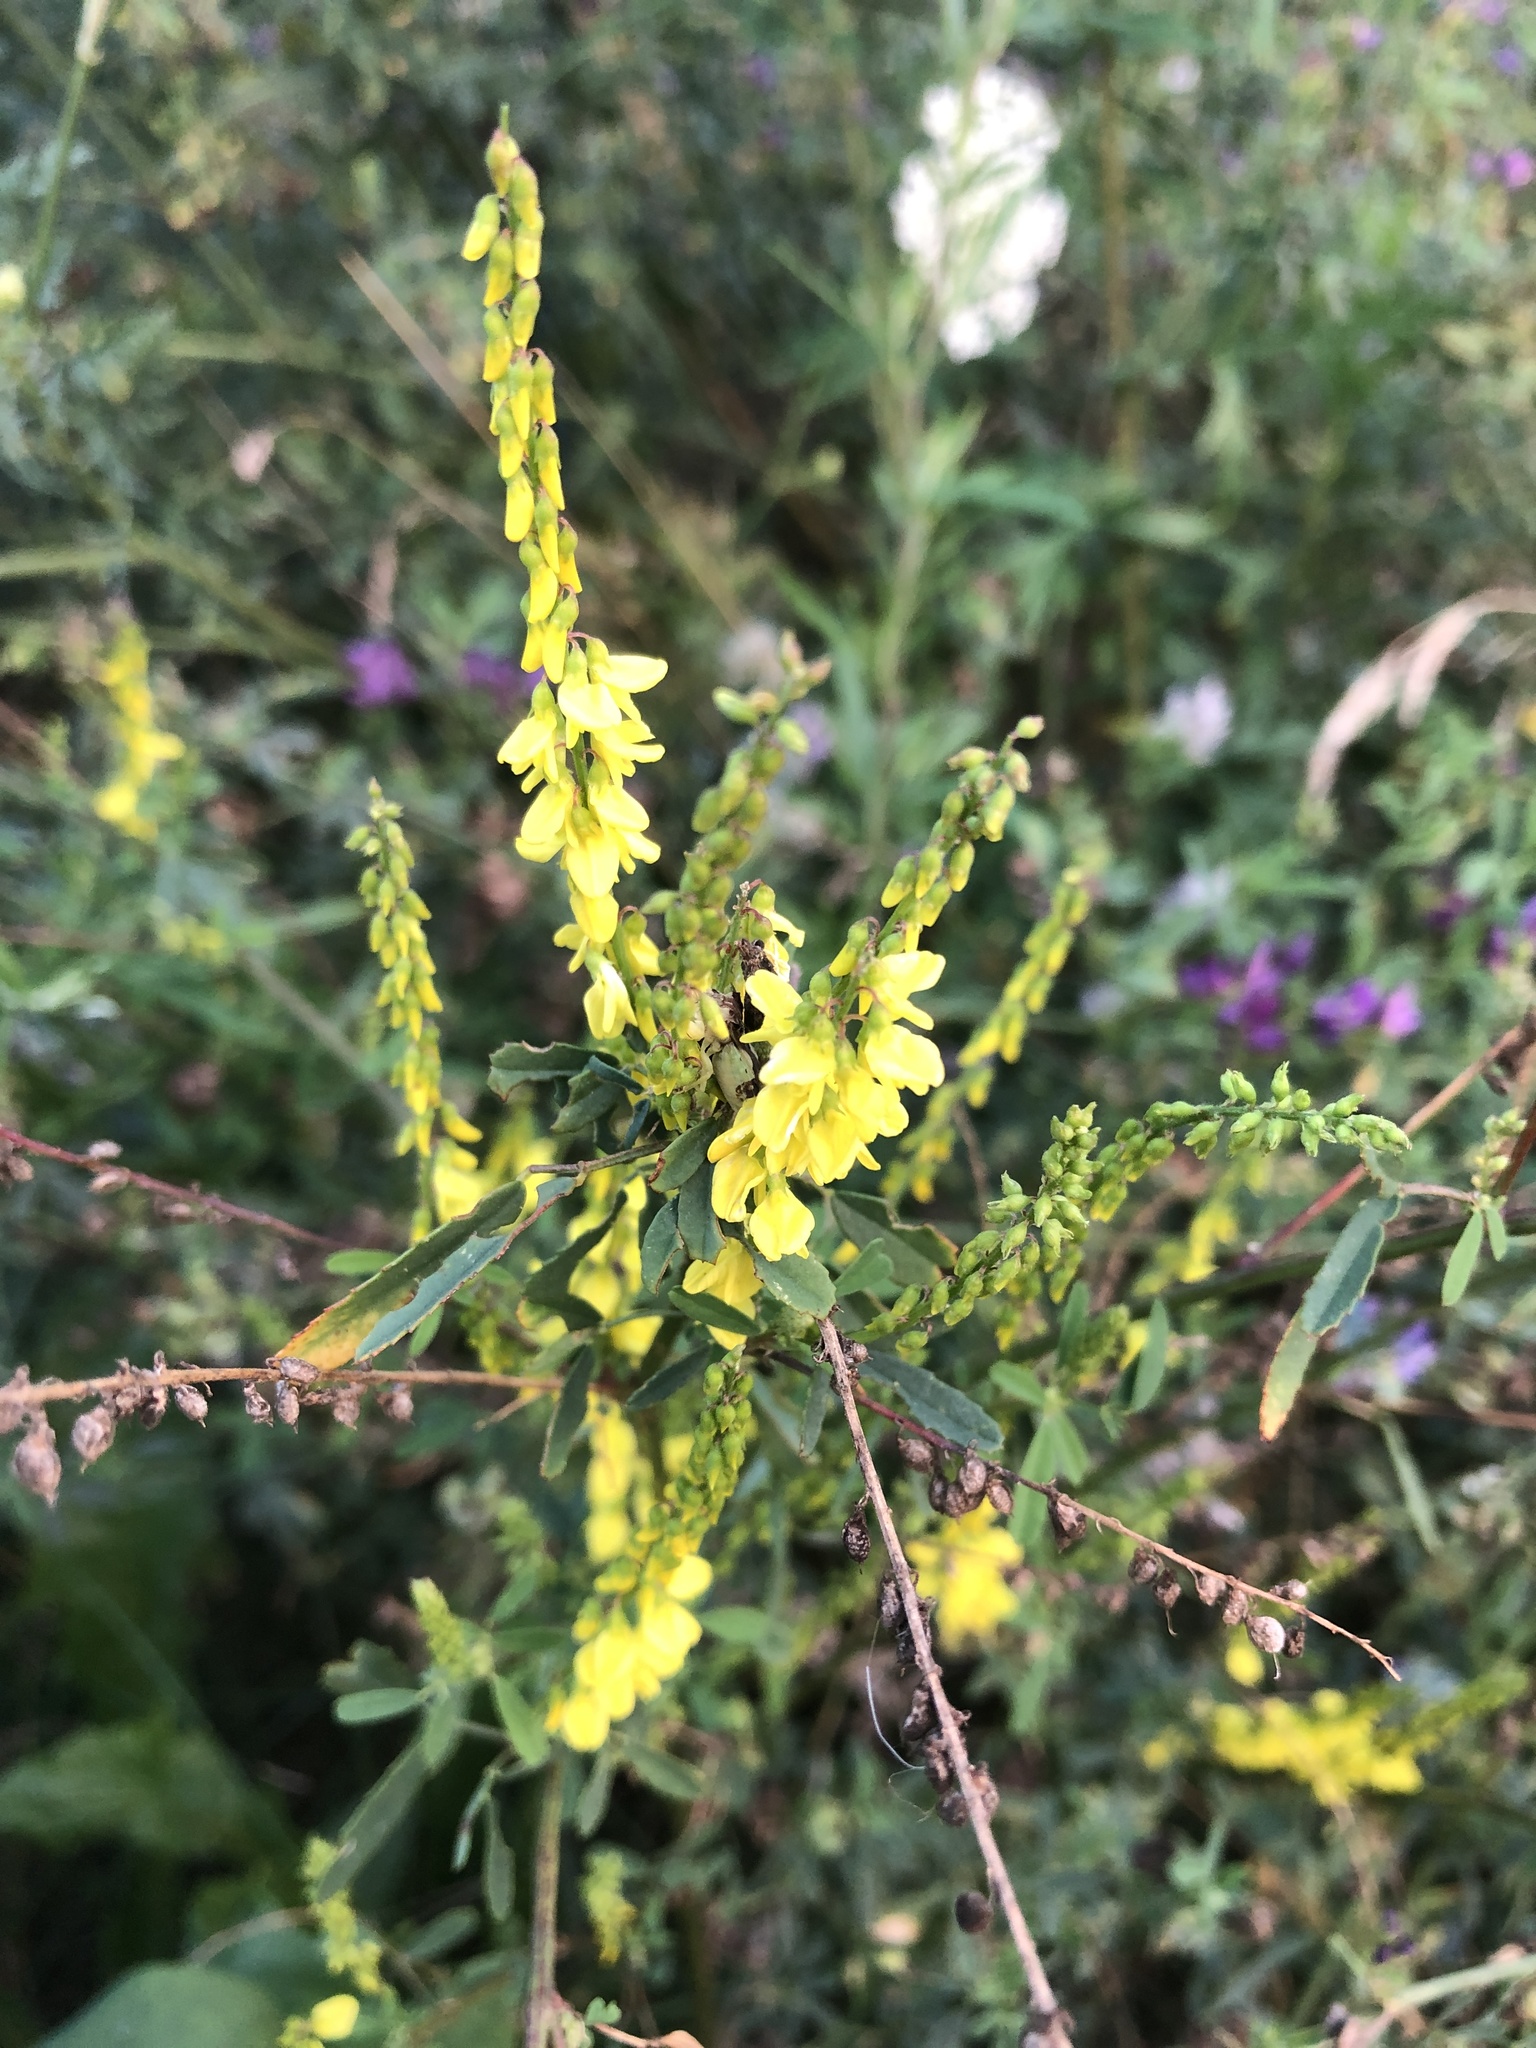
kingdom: Plantae
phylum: Tracheophyta
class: Magnoliopsida
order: Fabales
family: Fabaceae
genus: Melilotus
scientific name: Melilotus officinalis
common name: Sweetclover
